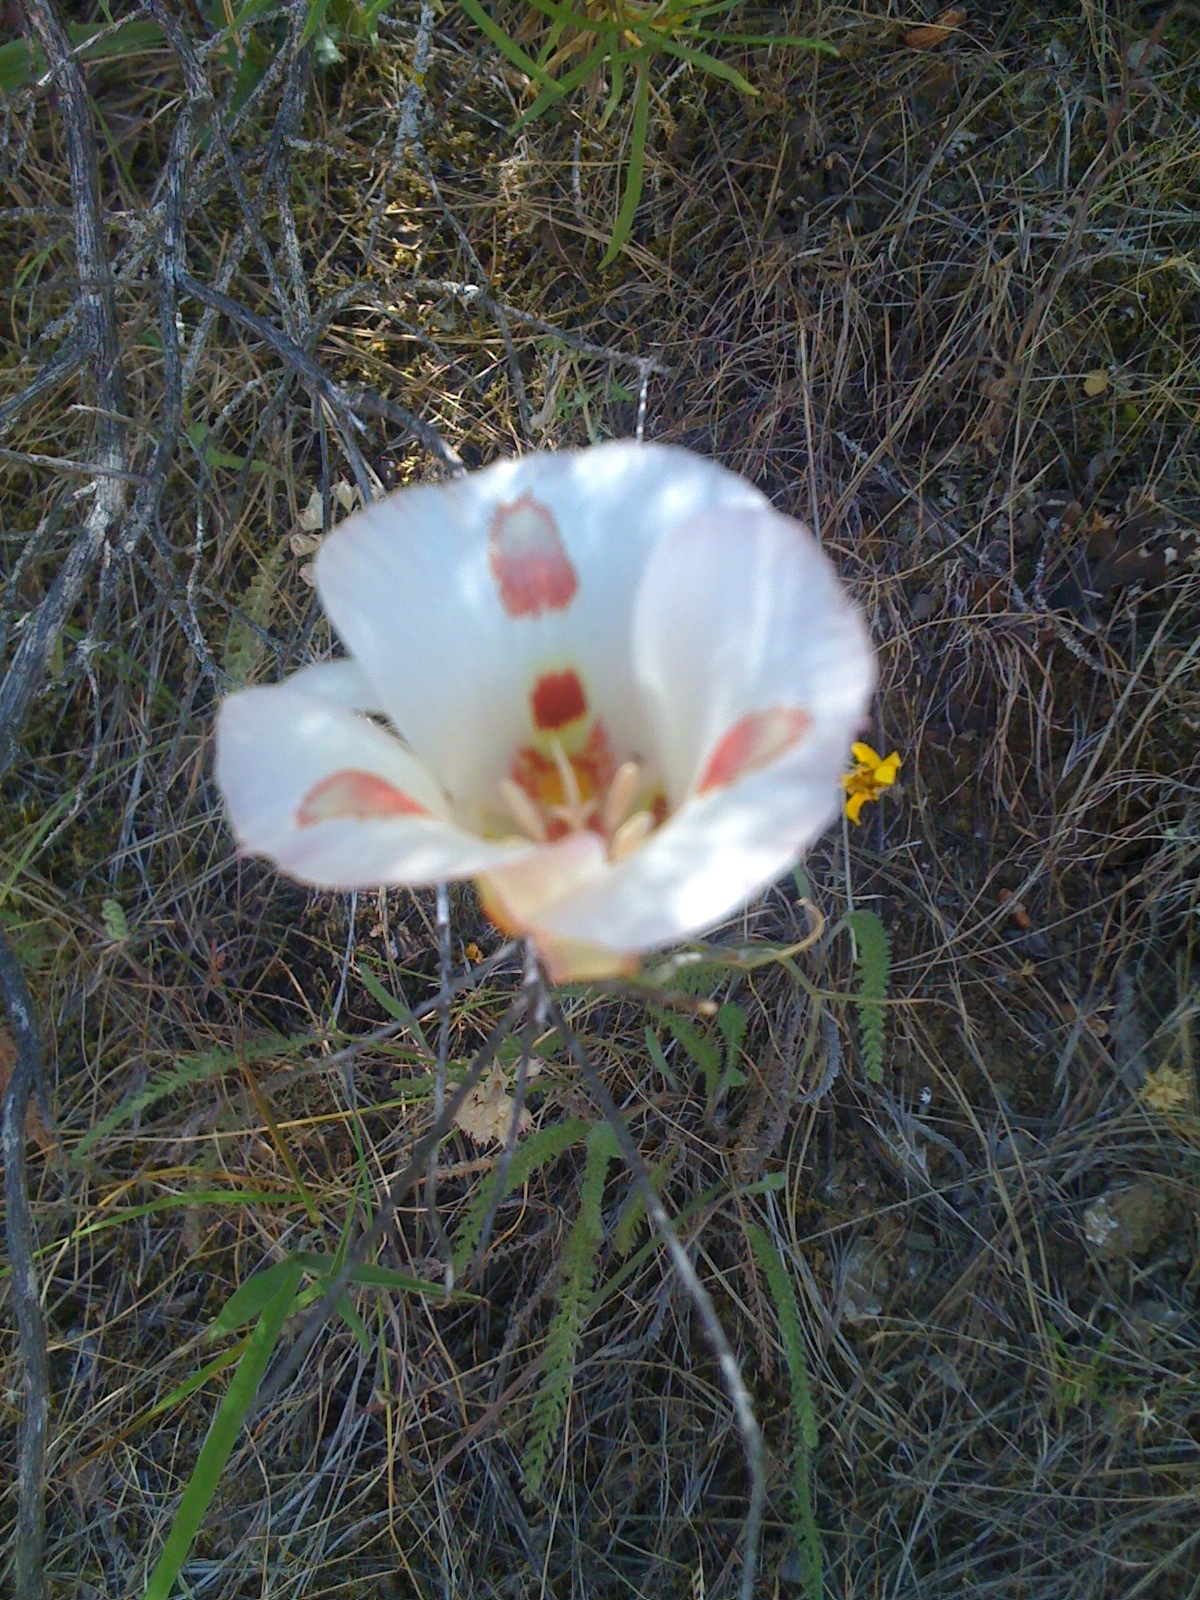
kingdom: Plantae
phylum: Tracheophyta
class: Liliopsida
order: Liliales
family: Liliaceae
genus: Calochortus
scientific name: Calochortus venustus
